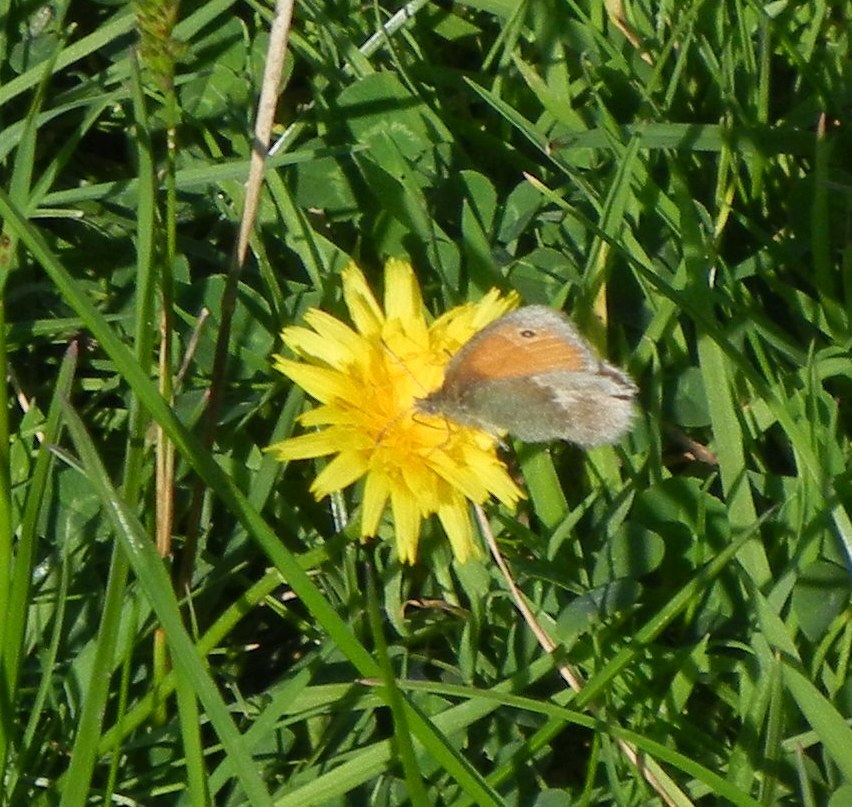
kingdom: Animalia
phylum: Arthropoda
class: Insecta
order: Lepidoptera
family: Nymphalidae
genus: Coenonympha
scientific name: Coenonympha pamphilus
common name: Small heath
